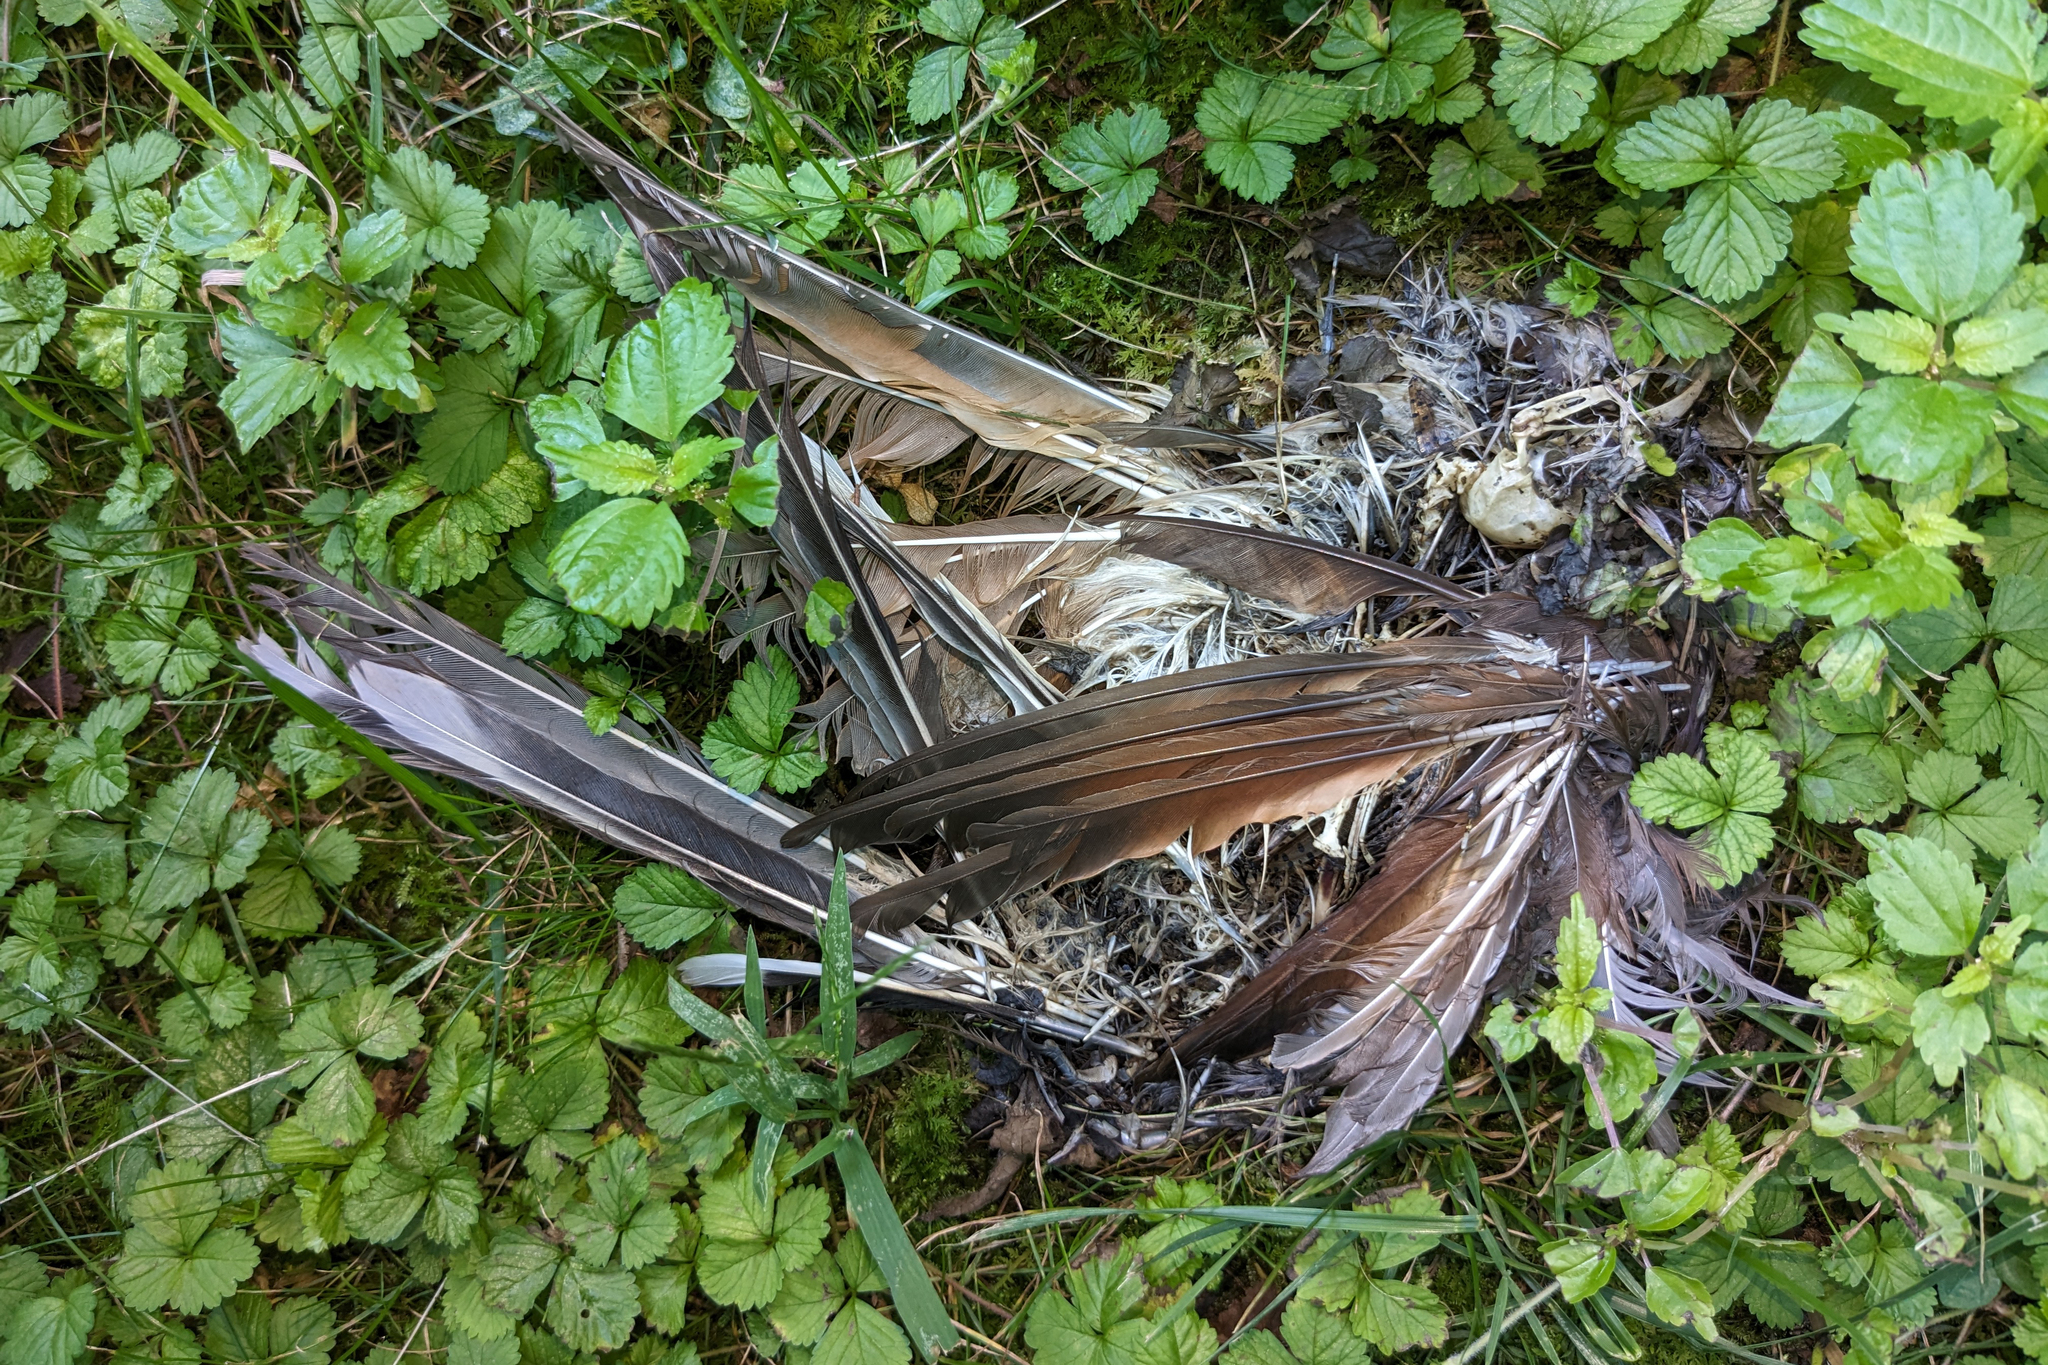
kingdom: Animalia
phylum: Chordata
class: Aves
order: Cuculiformes
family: Cuculidae
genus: Coccyzus
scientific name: Coccyzus americanus
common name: Yellow-billed cuckoo
